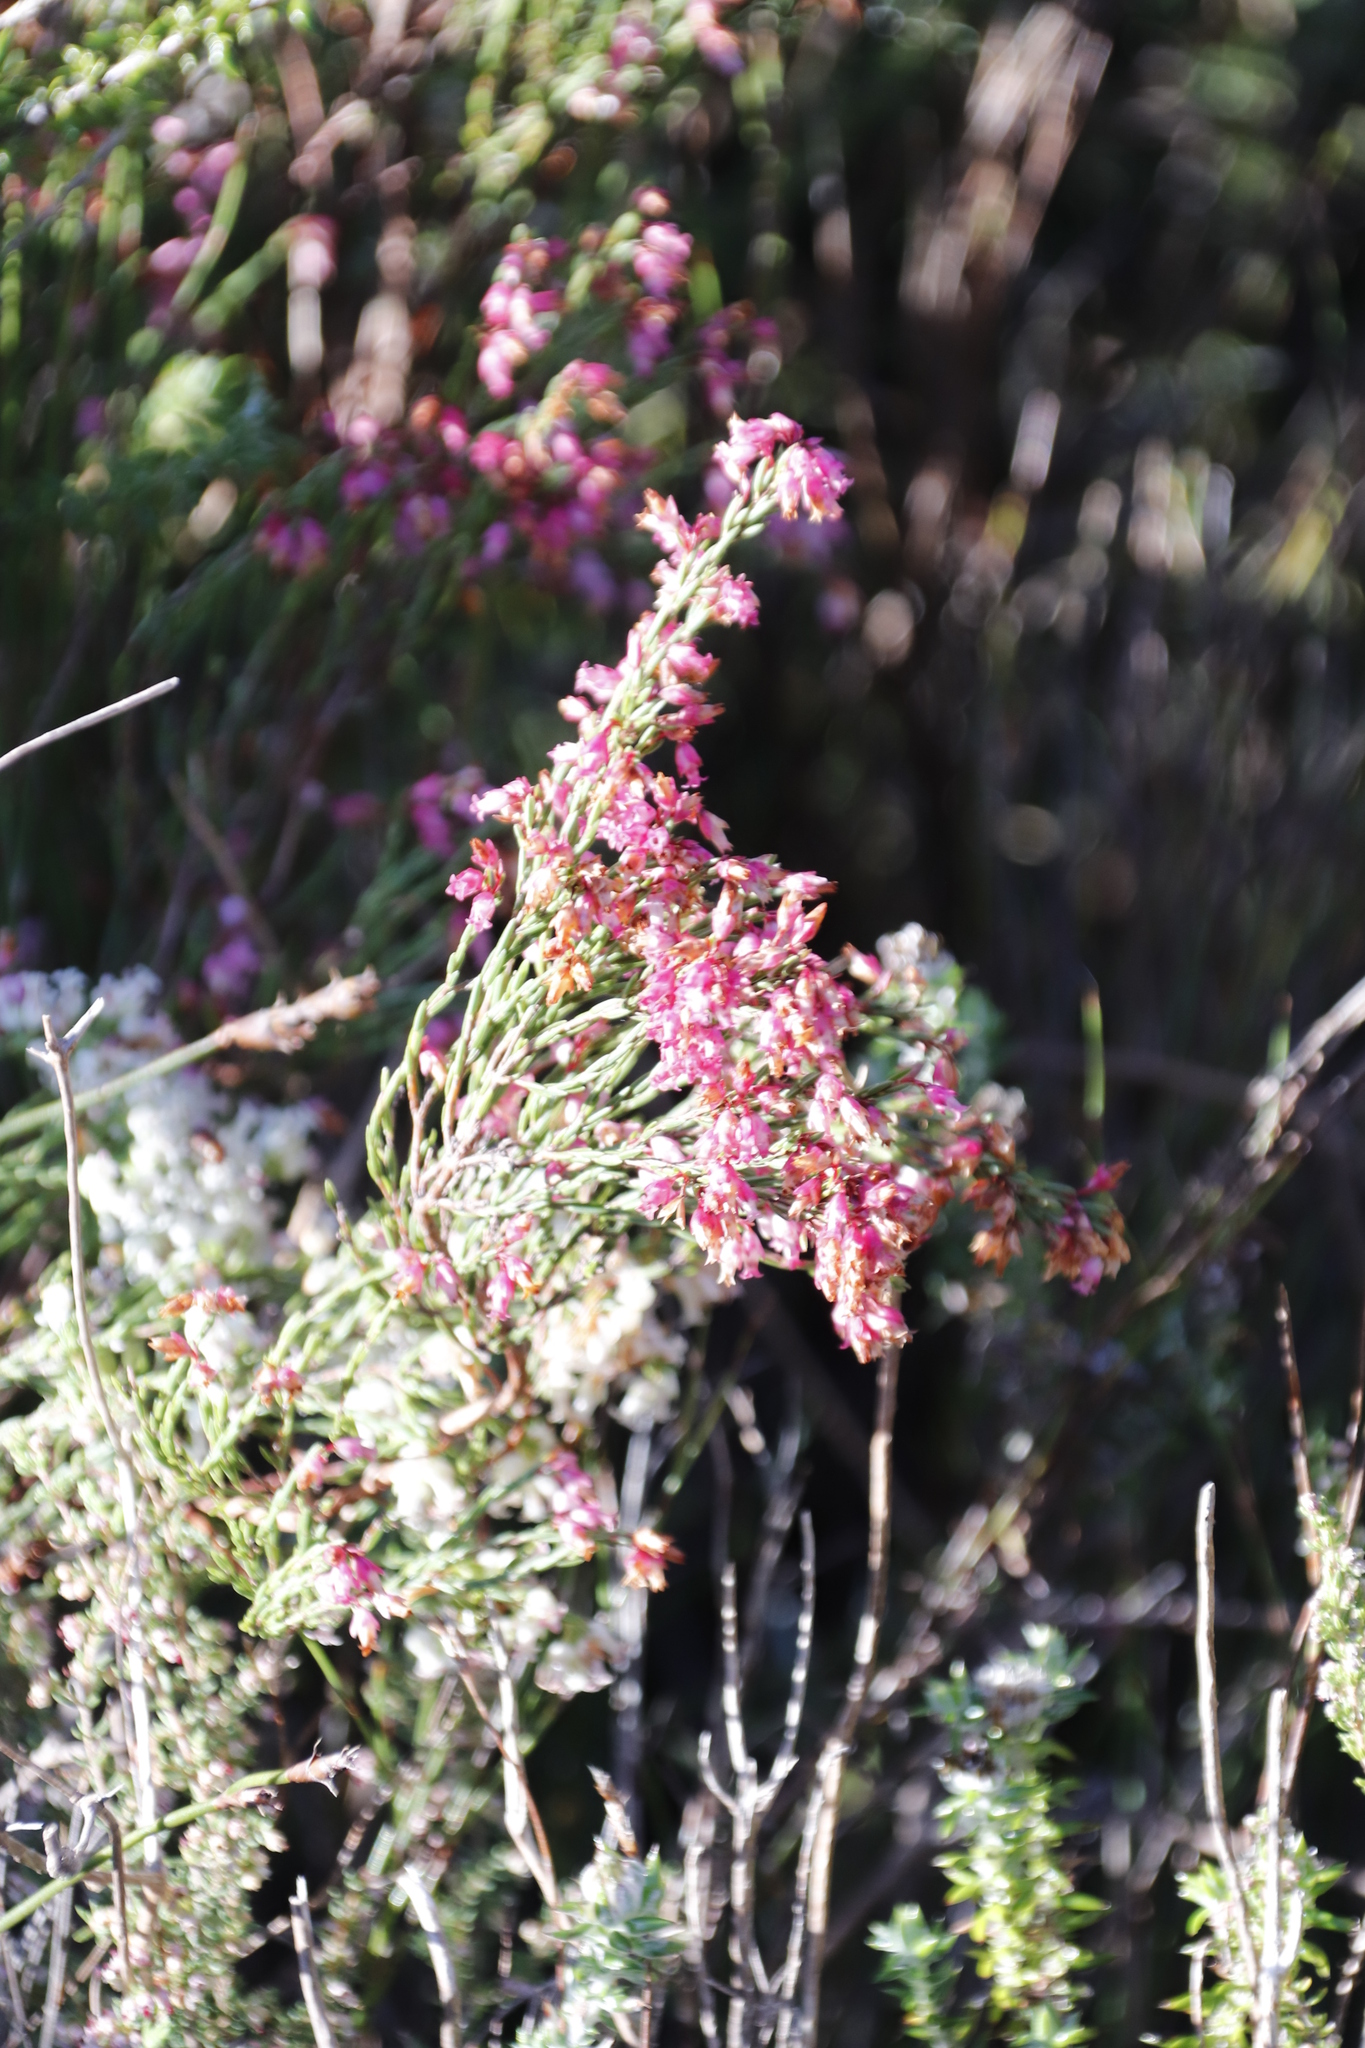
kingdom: Plantae
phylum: Tracheophyta
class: Magnoliopsida
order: Ericales
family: Ericaceae
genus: Erica
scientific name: Erica corifolia
